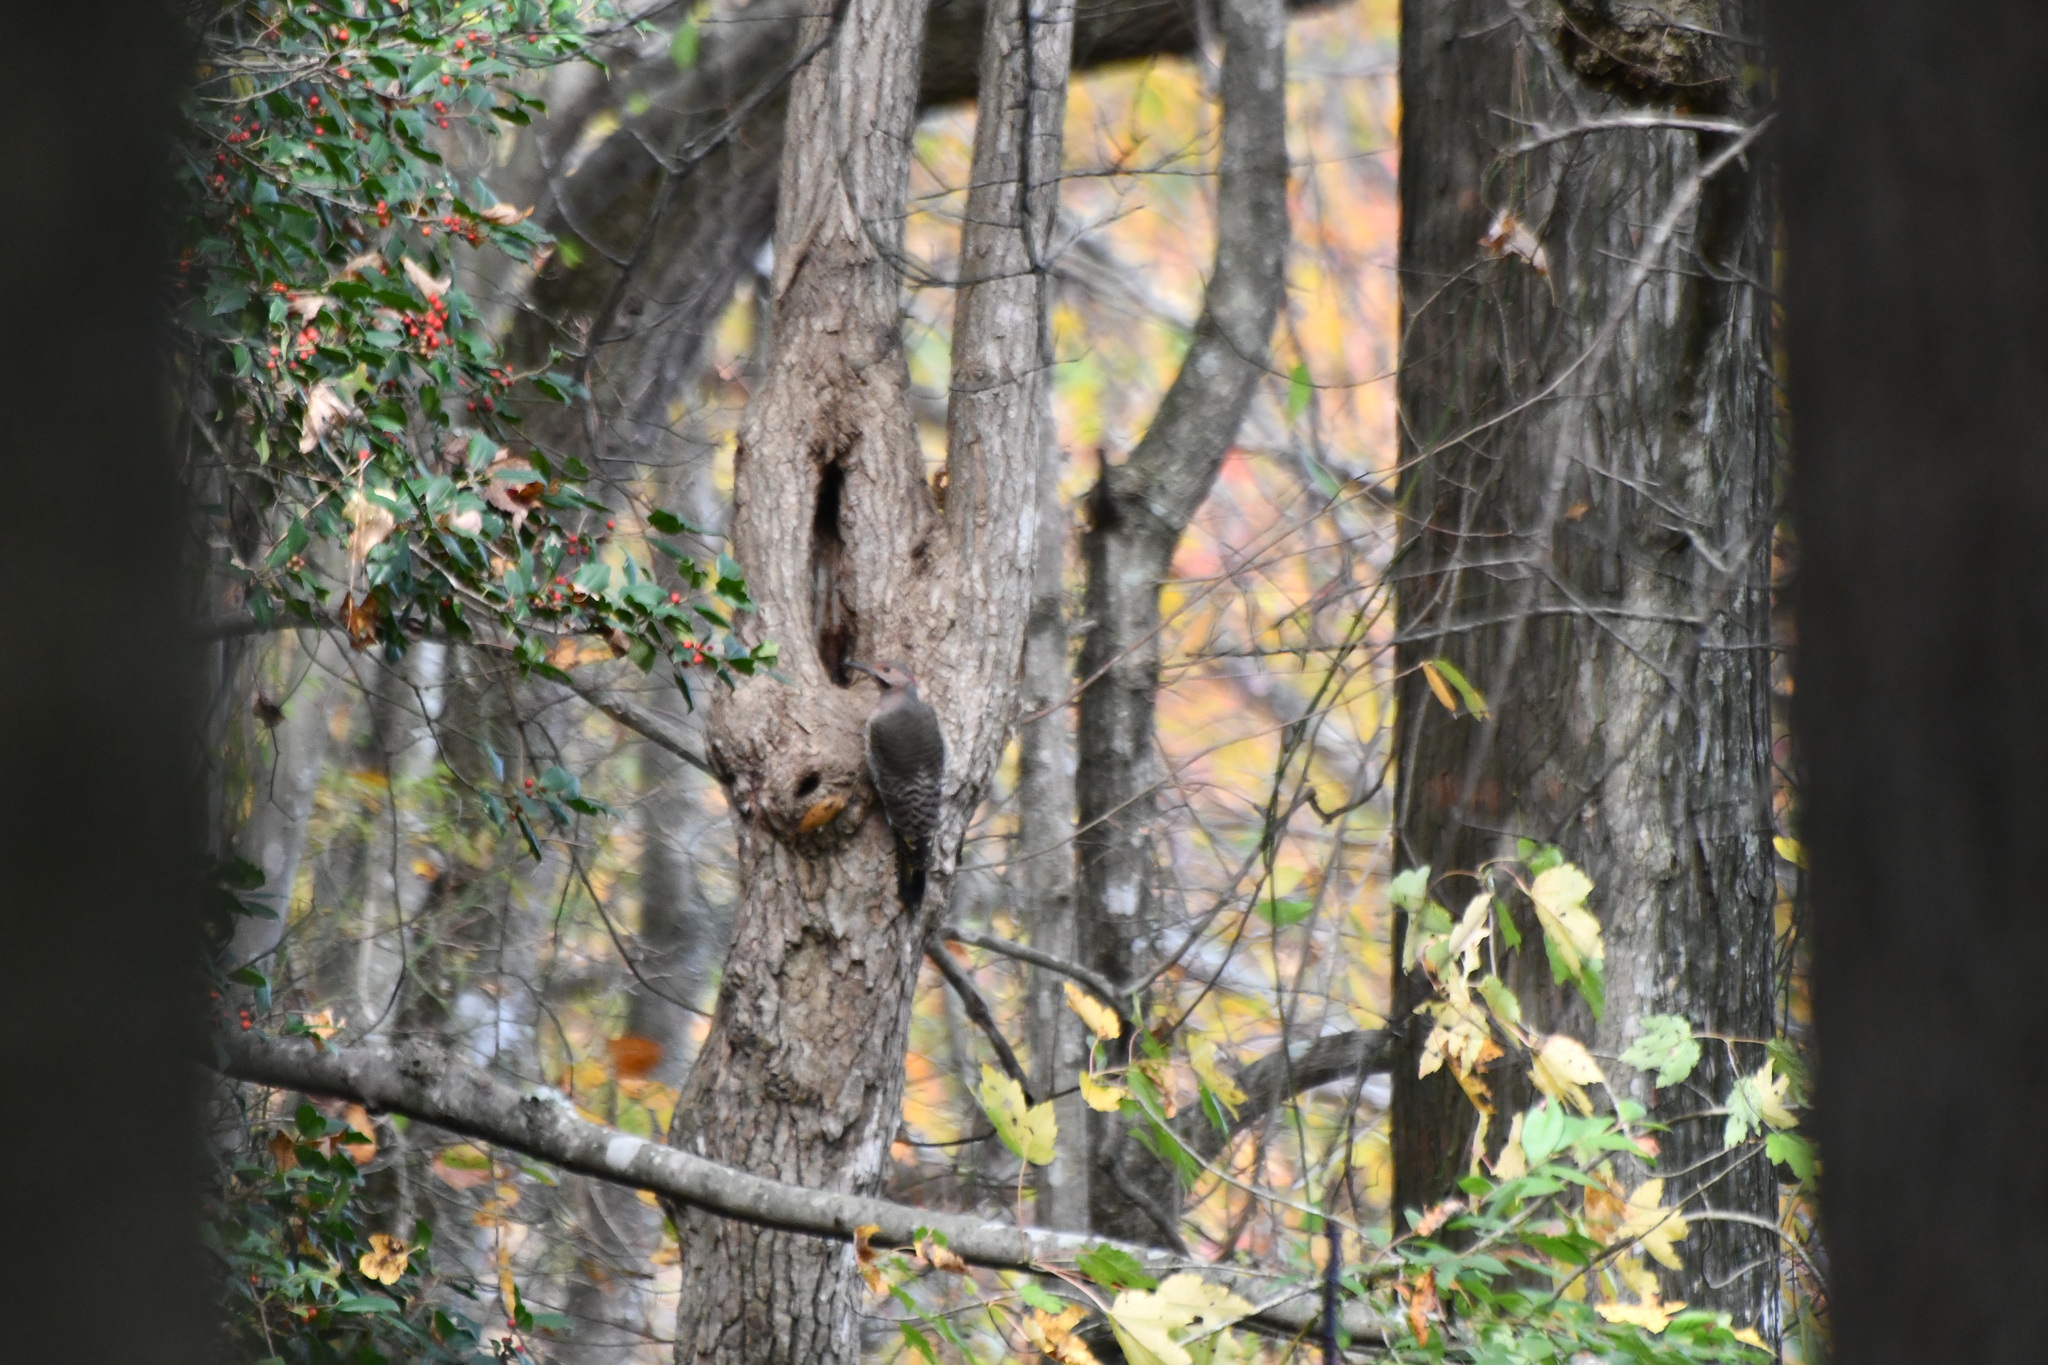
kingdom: Animalia
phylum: Chordata
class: Aves
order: Piciformes
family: Picidae
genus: Colaptes
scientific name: Colaptes auratus
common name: Northern flicker
